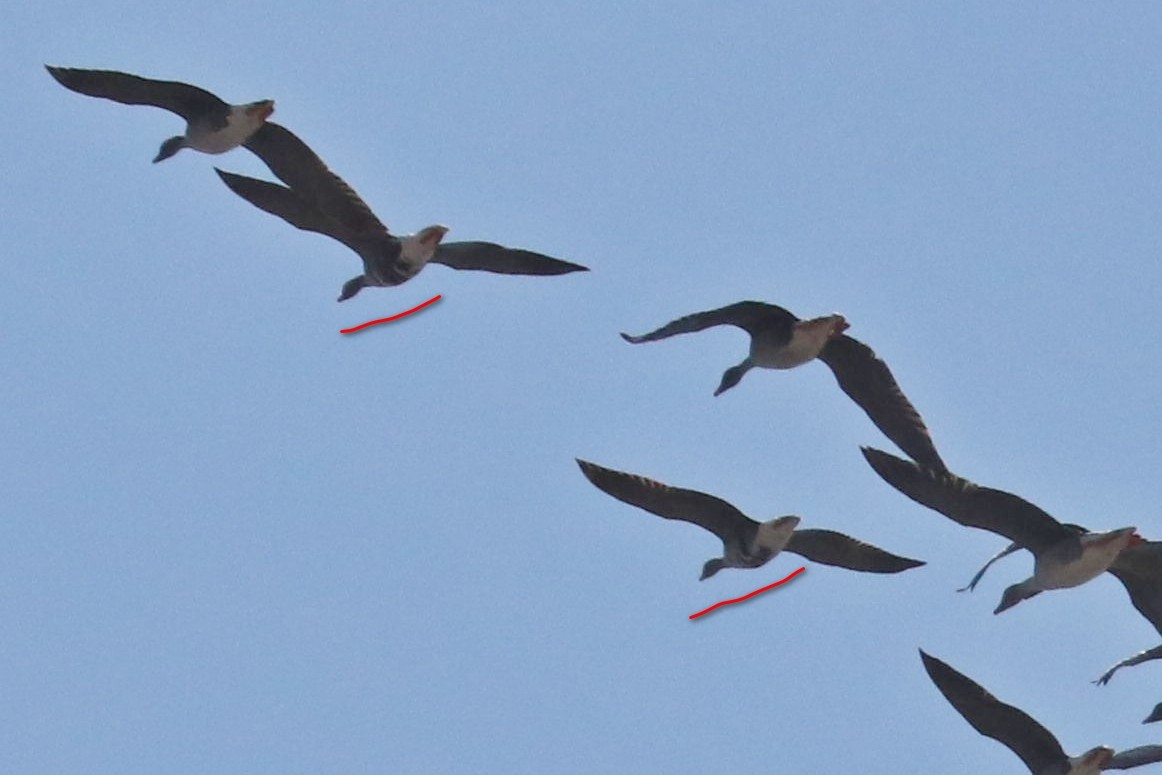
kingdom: Animalia
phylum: Chordata
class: Aves
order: Anseriformes
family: Anatidae
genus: Anser
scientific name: Anser albifrons
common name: Greater white-fronted goose
